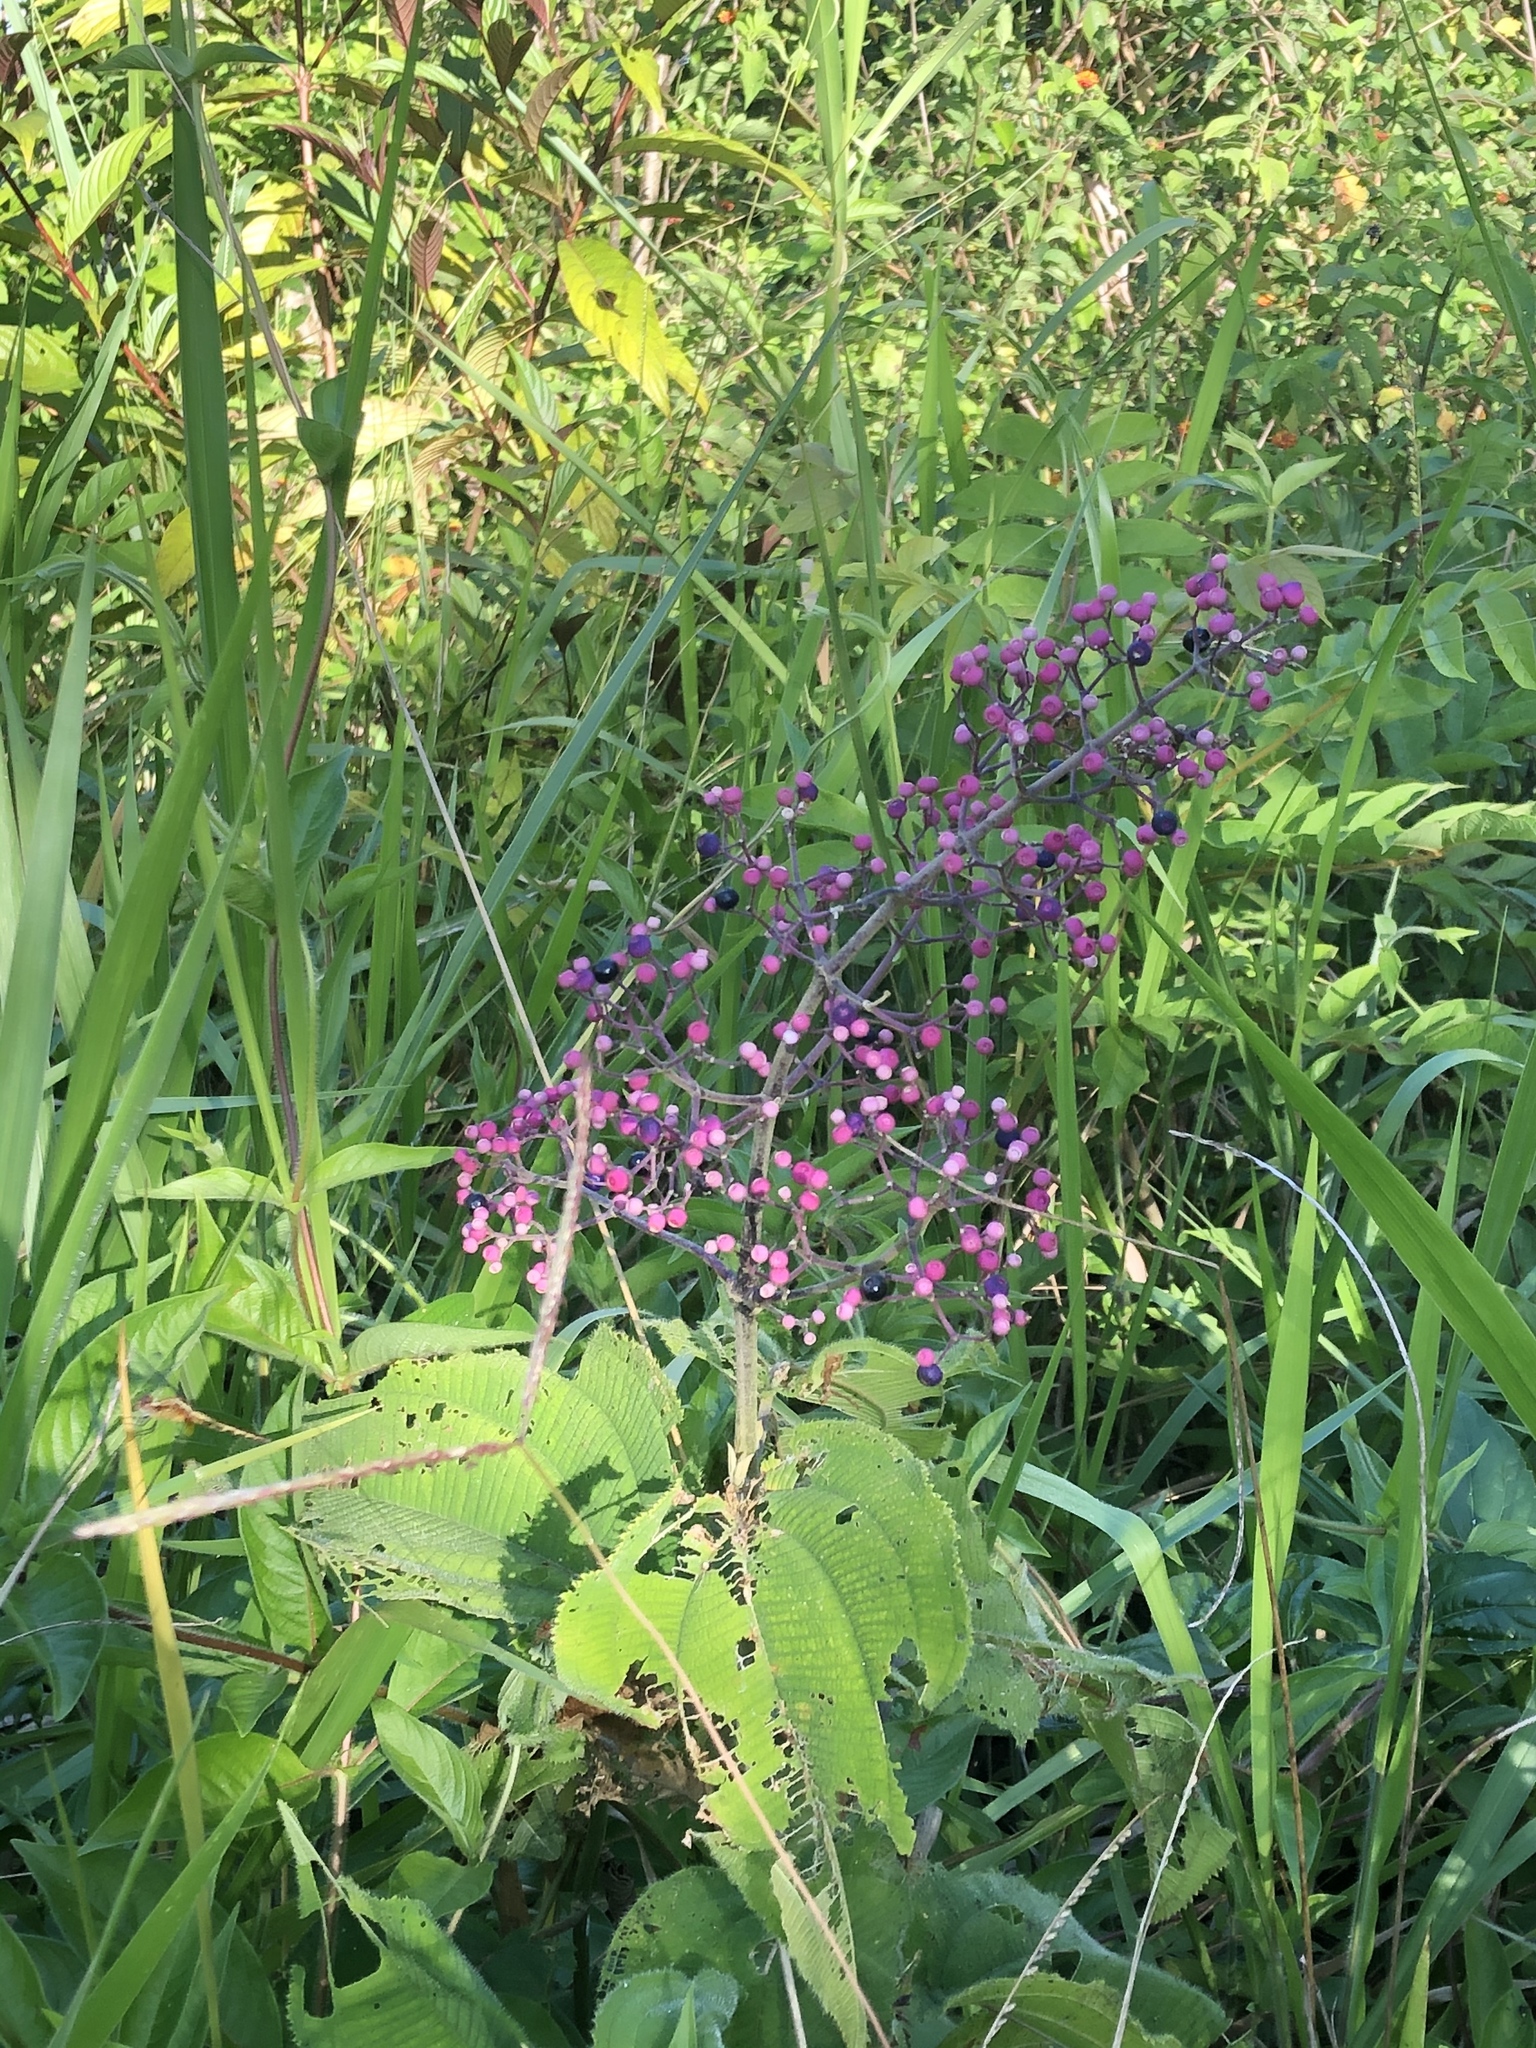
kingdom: Plantae
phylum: Tracheophyta
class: Magnoliopsida
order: Myrtales
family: Melastomataceae
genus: Miconia
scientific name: Miconia subcrustulata
